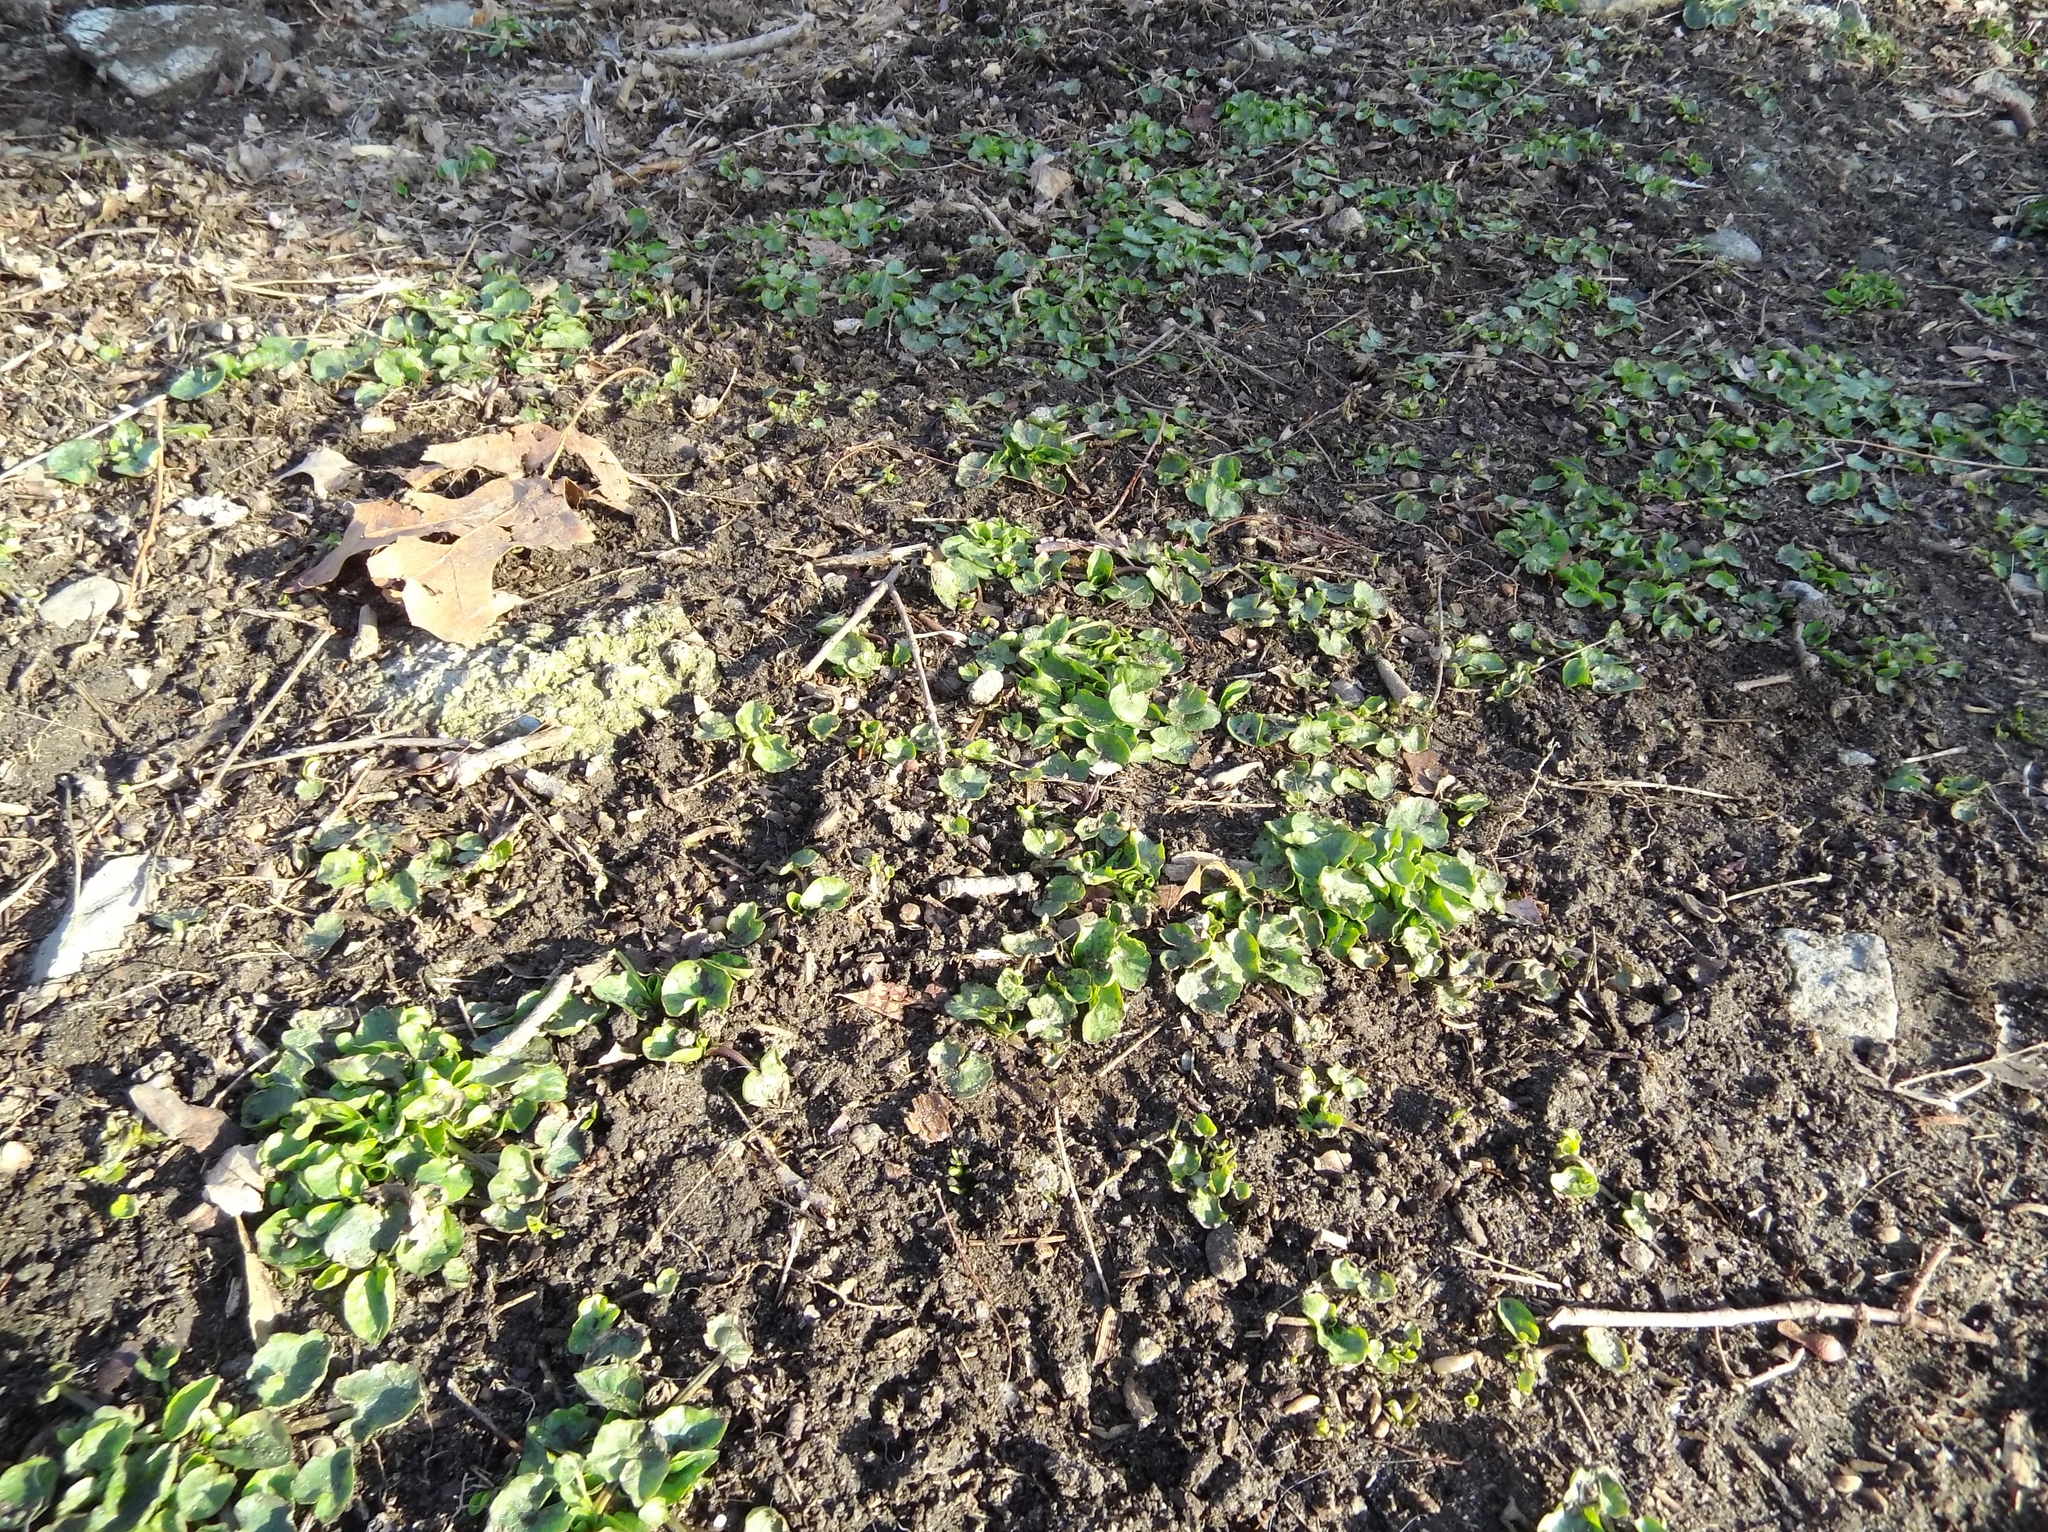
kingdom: Plantae
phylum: Tracheophyta
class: Magnoliopsida
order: Ranunculales
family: Ranunculaceae
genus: Ficaria
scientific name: Ficaria verna
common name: Lesser celandine
